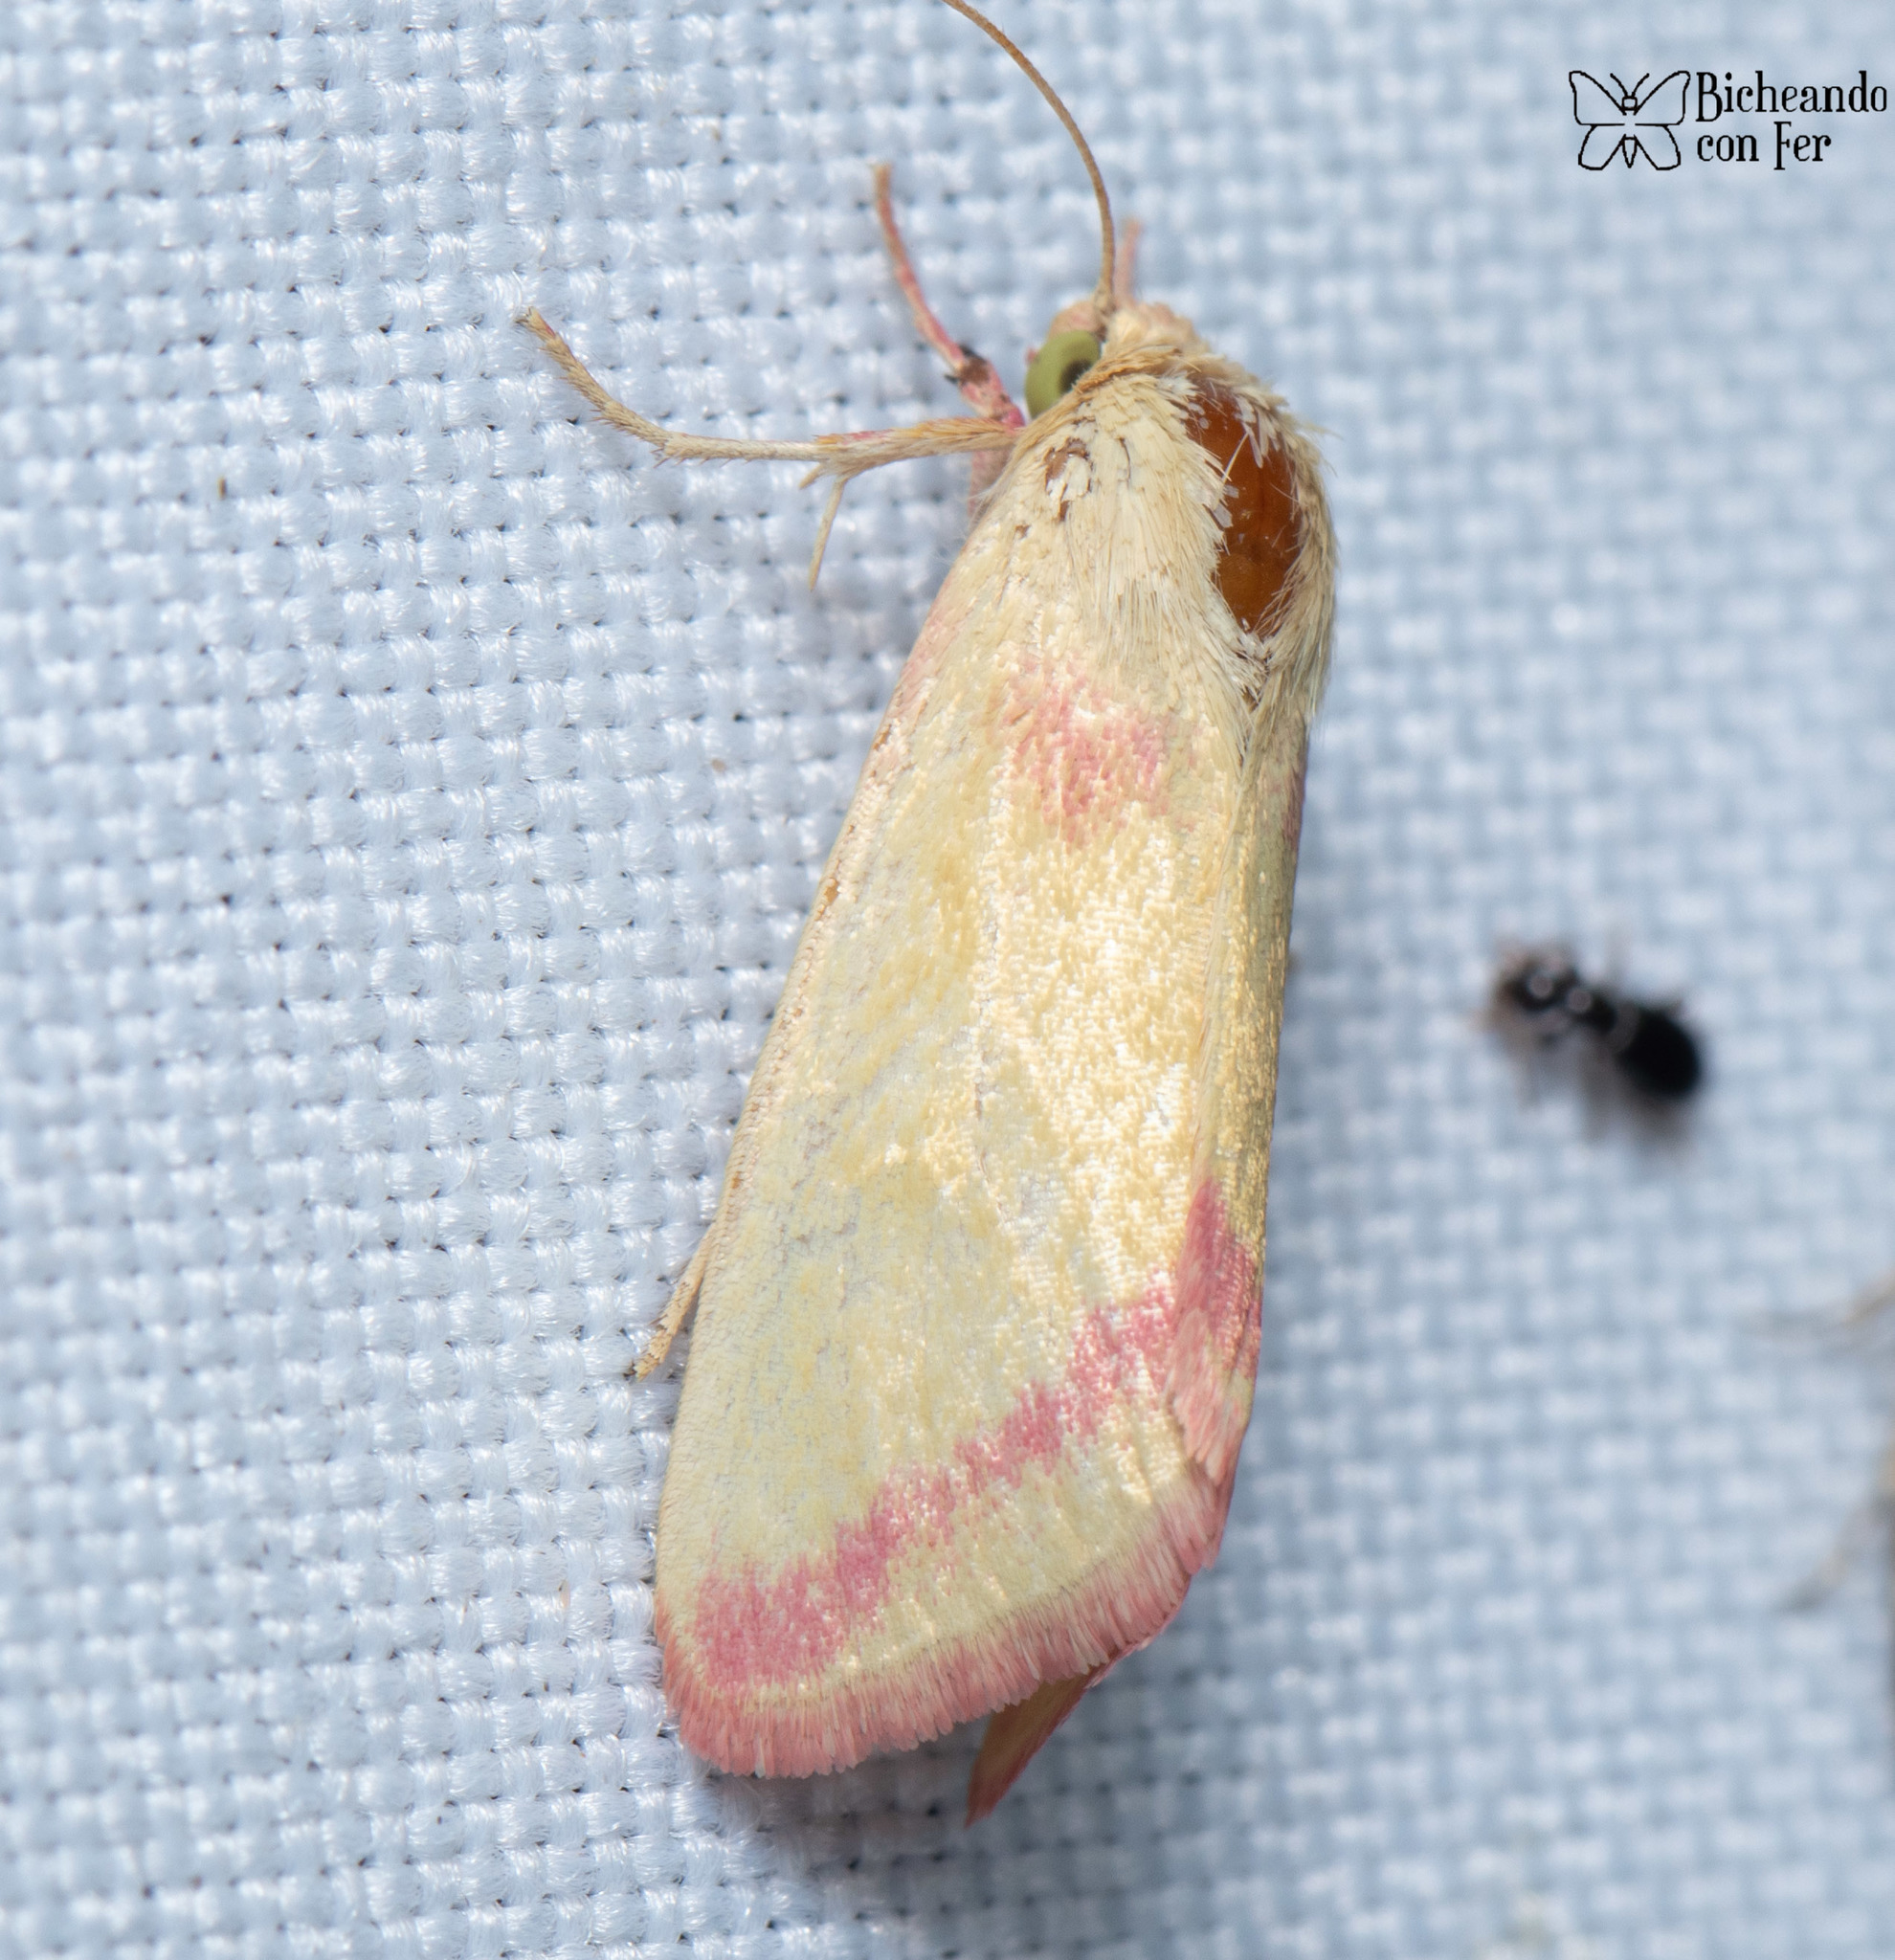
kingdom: Animalia
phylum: Arthropoda
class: Insecta
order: Lepidoptera
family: Noctuidae
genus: Heliocheilus
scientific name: Heliocheilus toralis
